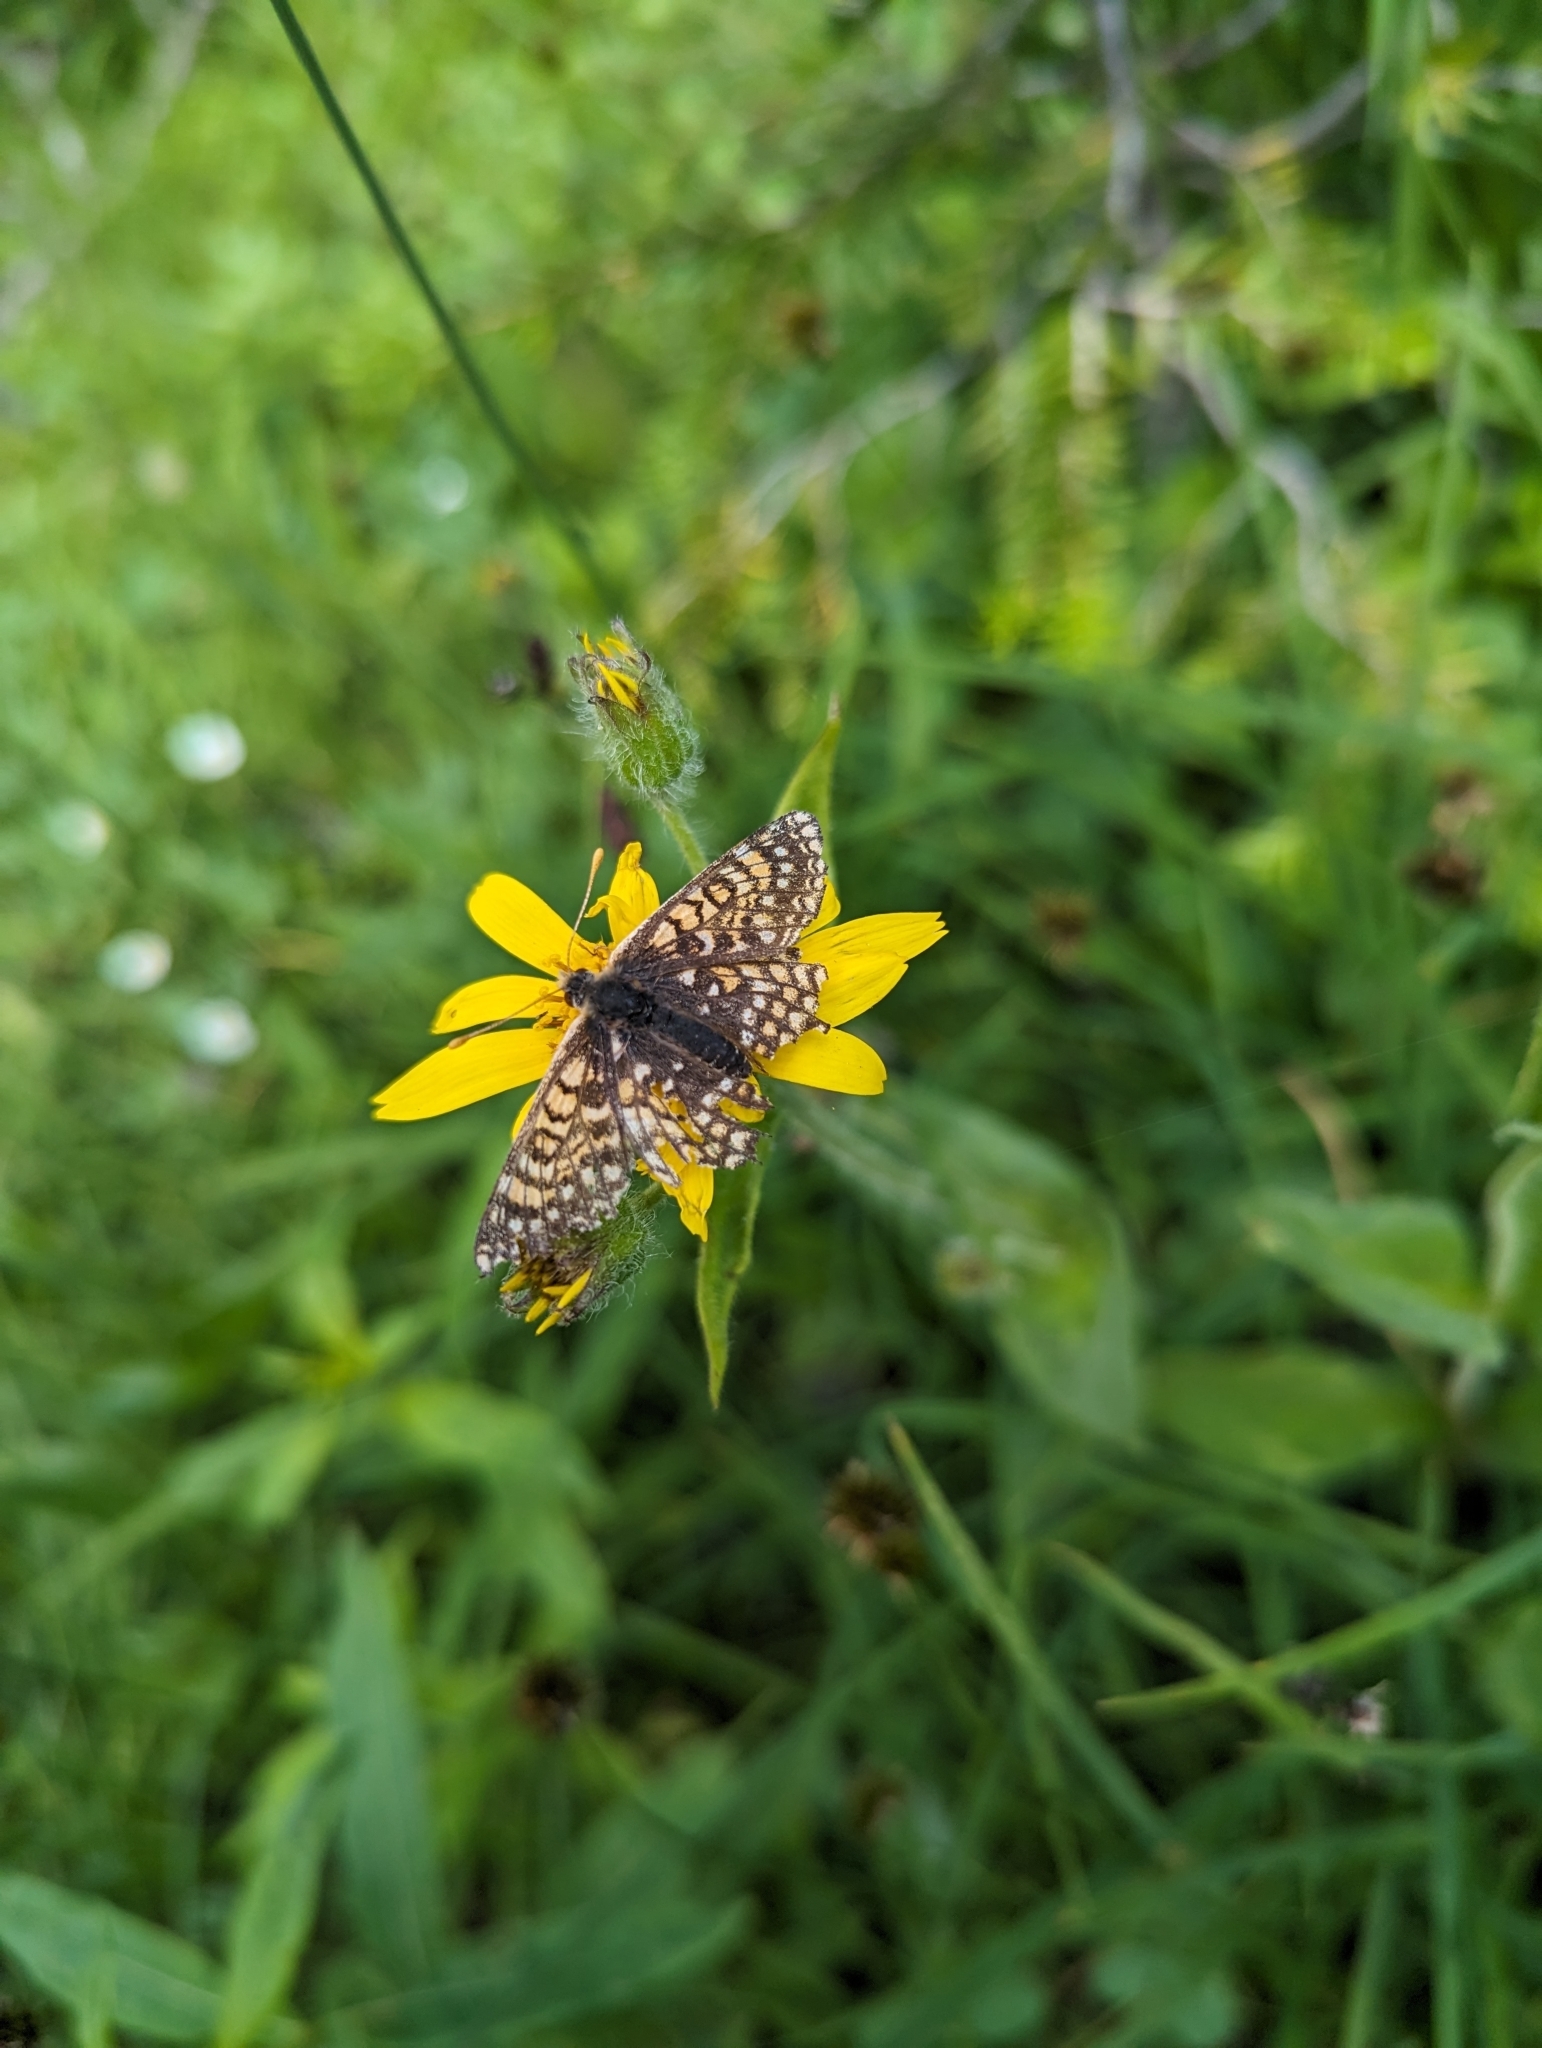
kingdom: Animalia
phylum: Arthropoda
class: Insecta
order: Lepidoptera
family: Nymphalidae
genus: Occidryas
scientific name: Occidryas anicia
